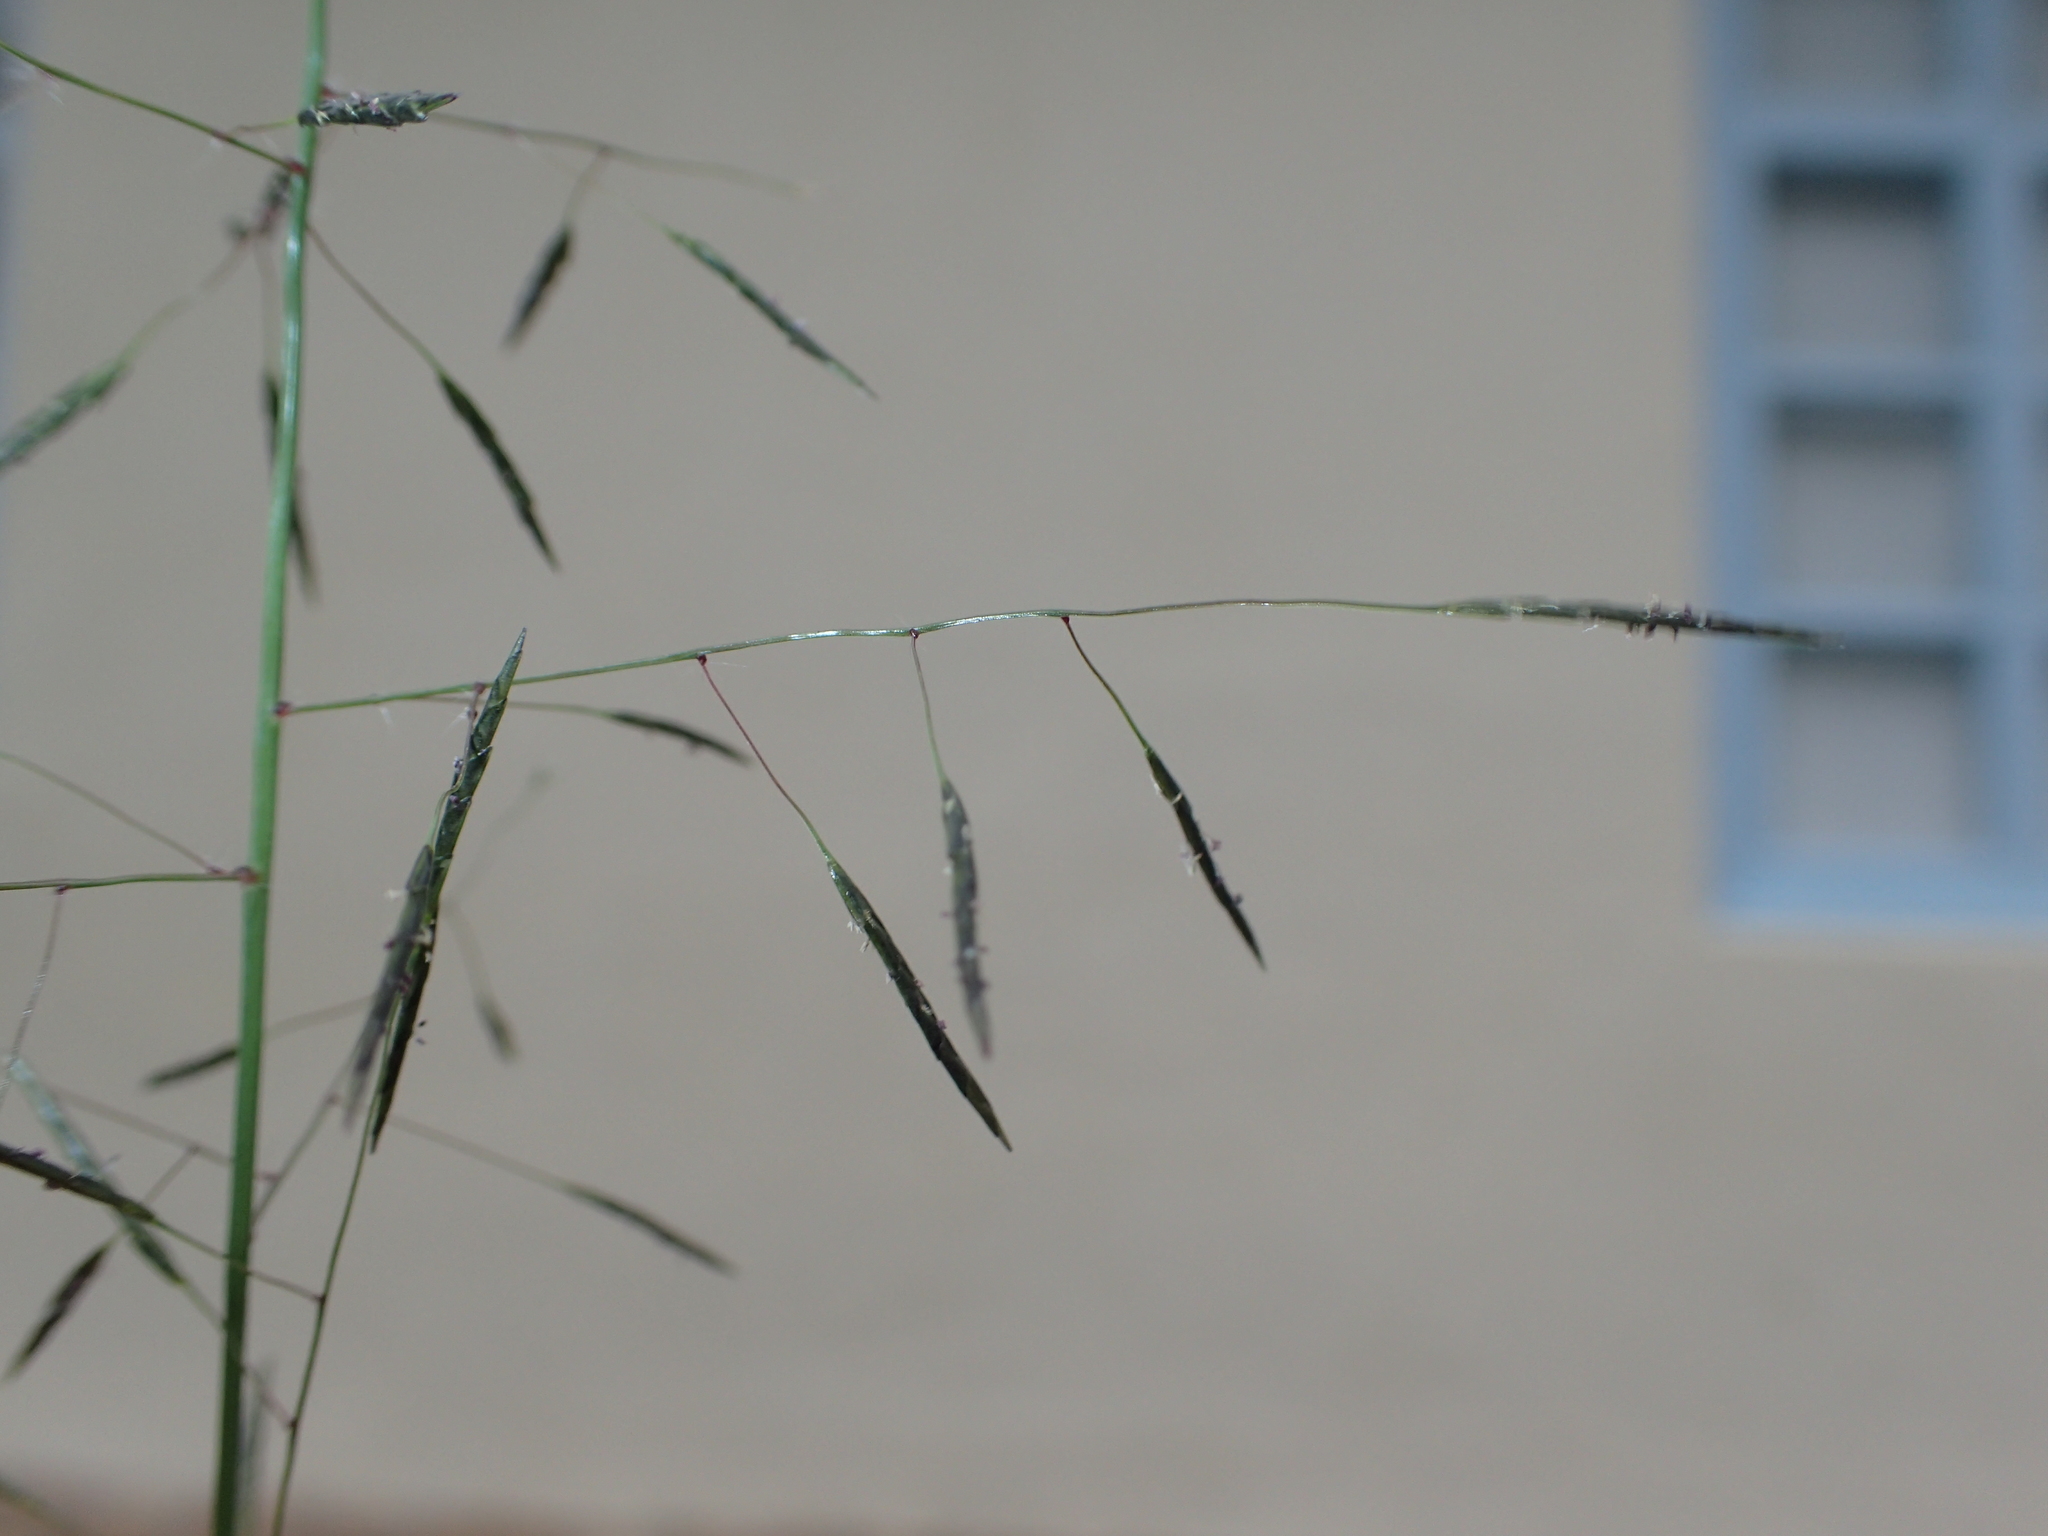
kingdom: Plantae
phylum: Tracheophyta
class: Liliopsida
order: Poales
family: Poaceae
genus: Eragrostis
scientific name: Eragrostis tenuifolia
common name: Elastic grass
